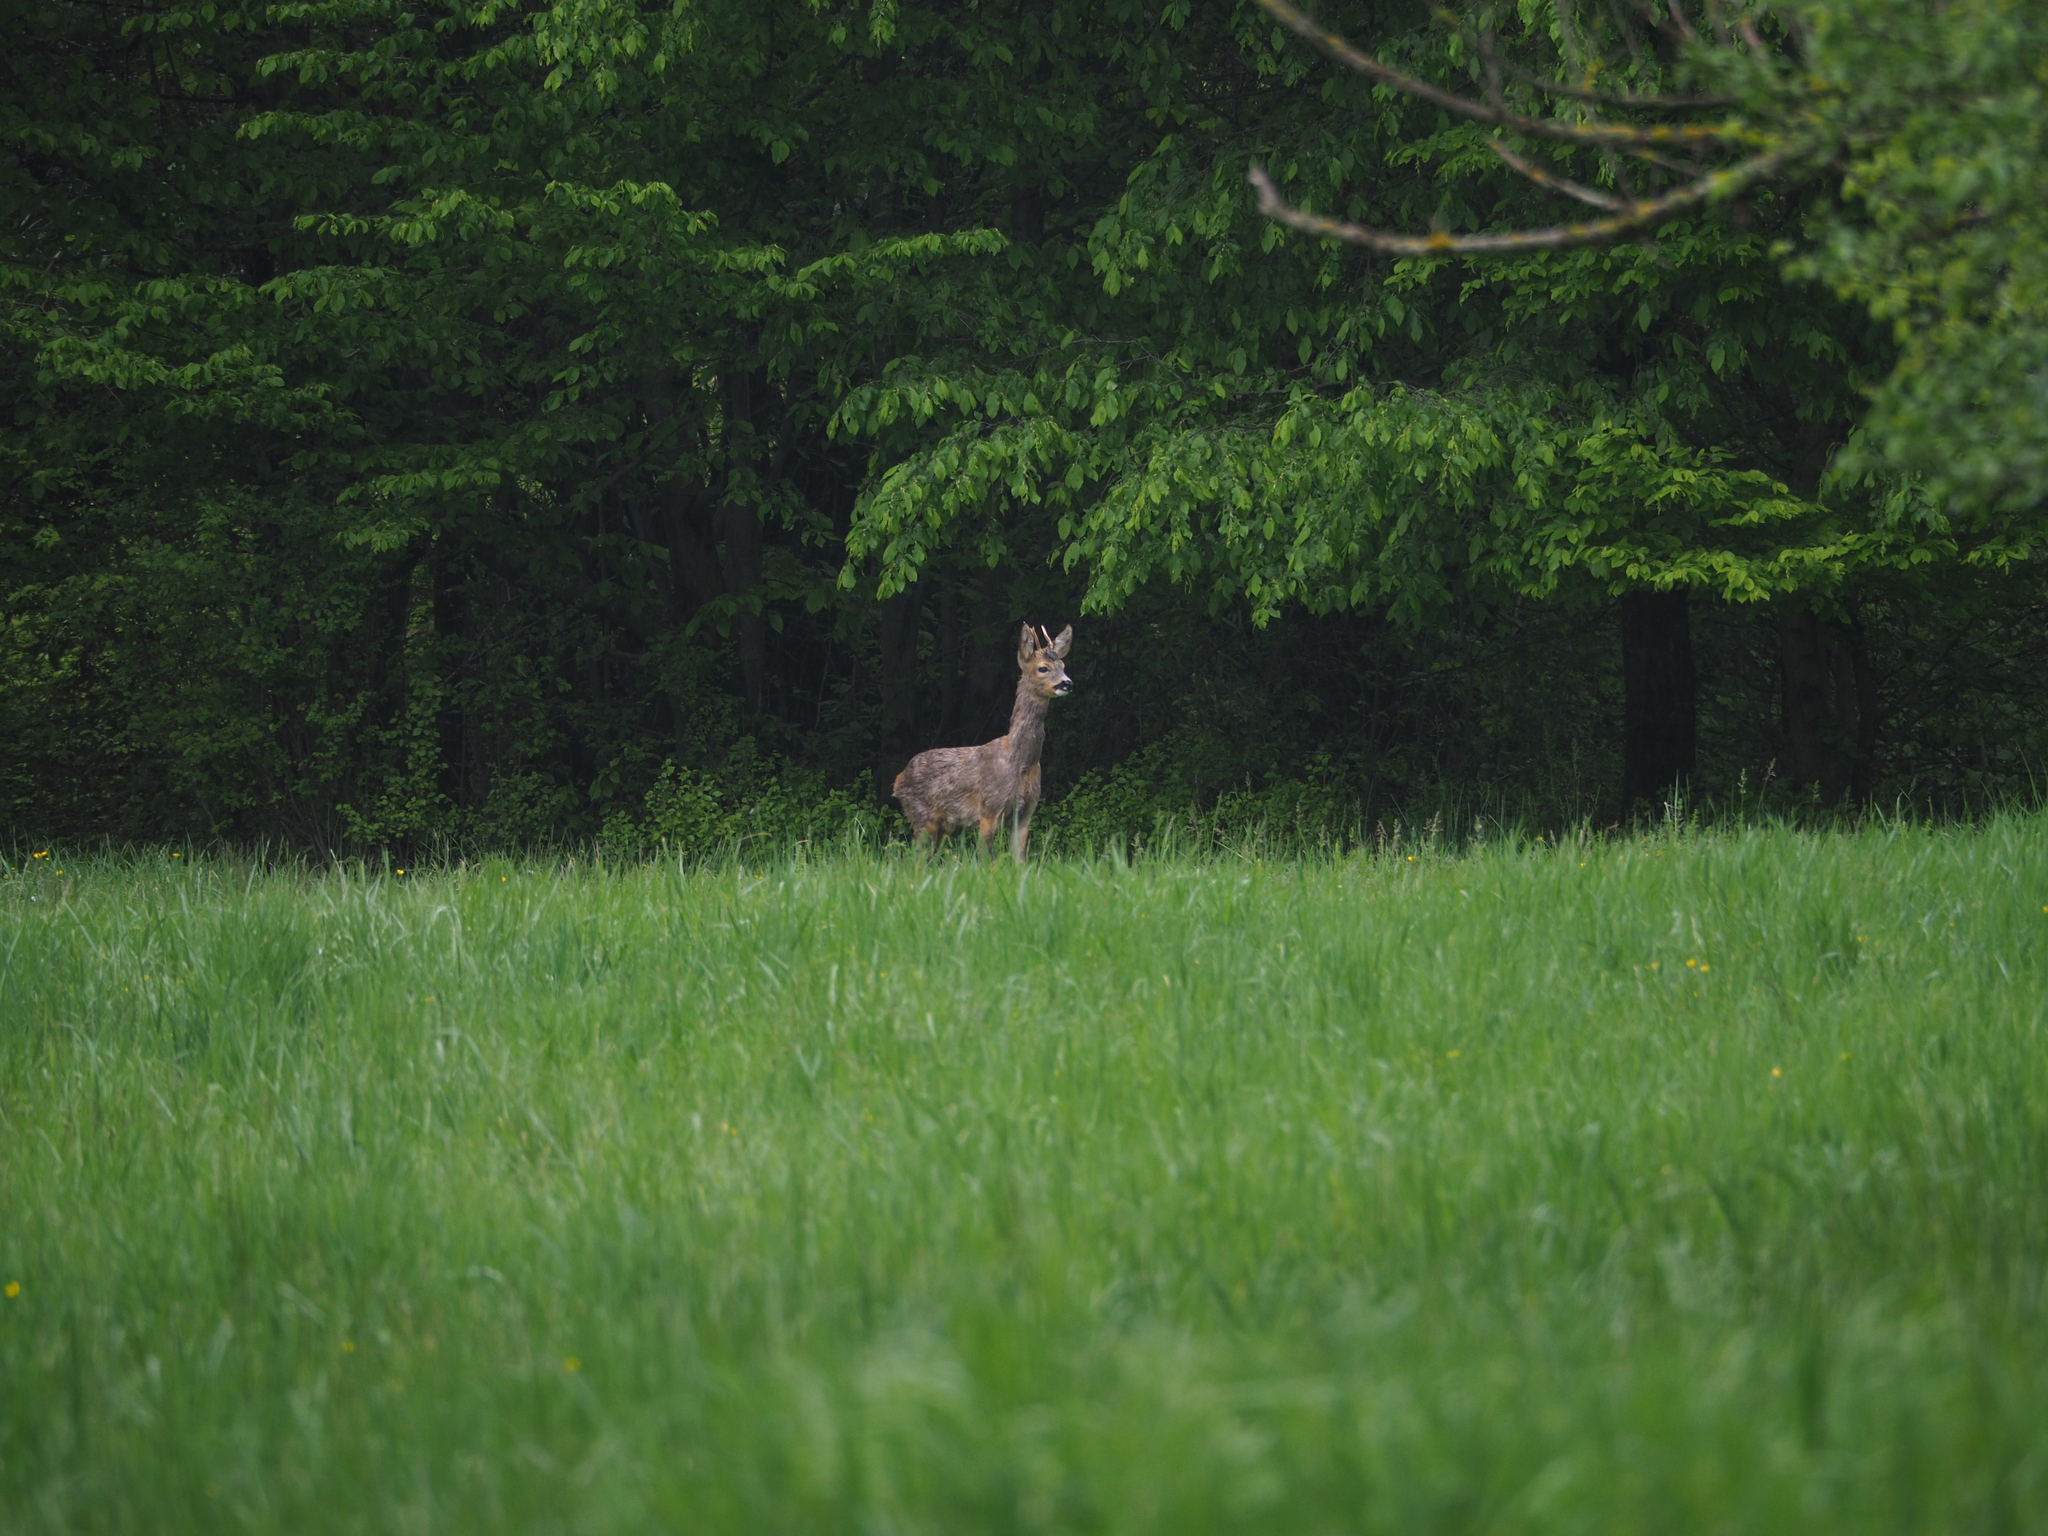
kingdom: Animalia
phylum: Chordata
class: Mammalia
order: Artiodactyla
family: Cervidae
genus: Capreolus
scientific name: Capreolus capreolus
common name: Western roe deer
